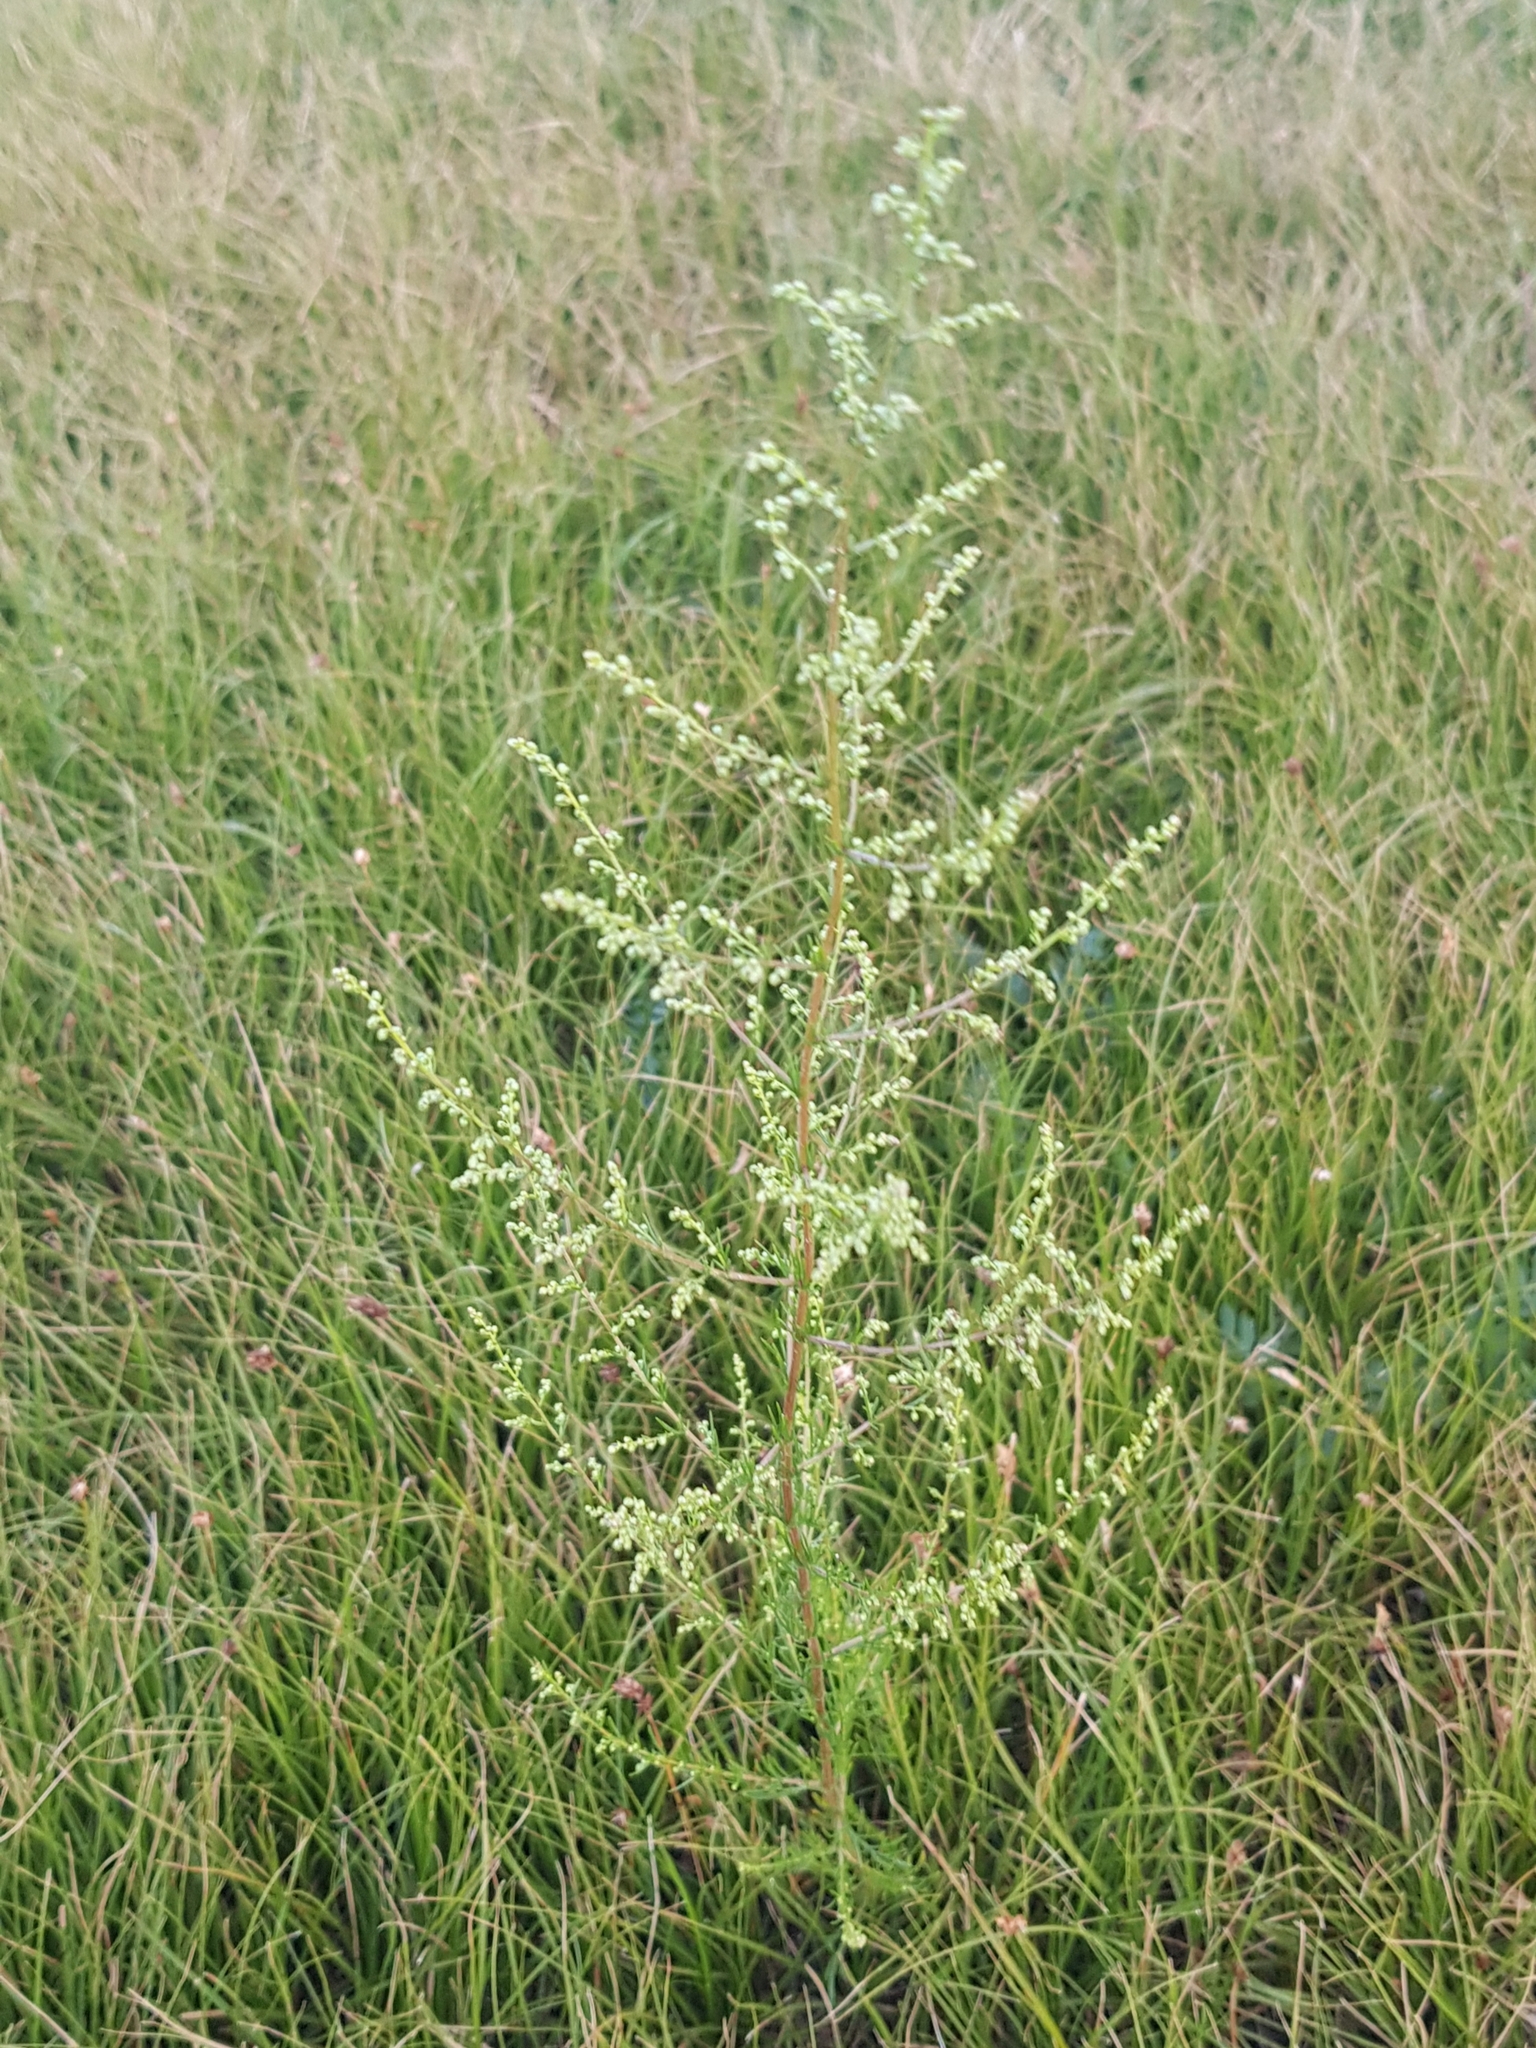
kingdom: Plantae
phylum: Tracheophyta
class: Magnoliopsida
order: Asterales
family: Asteraceae
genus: Artemisia
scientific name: Artemisia scoparia
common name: Redstem wormwood
